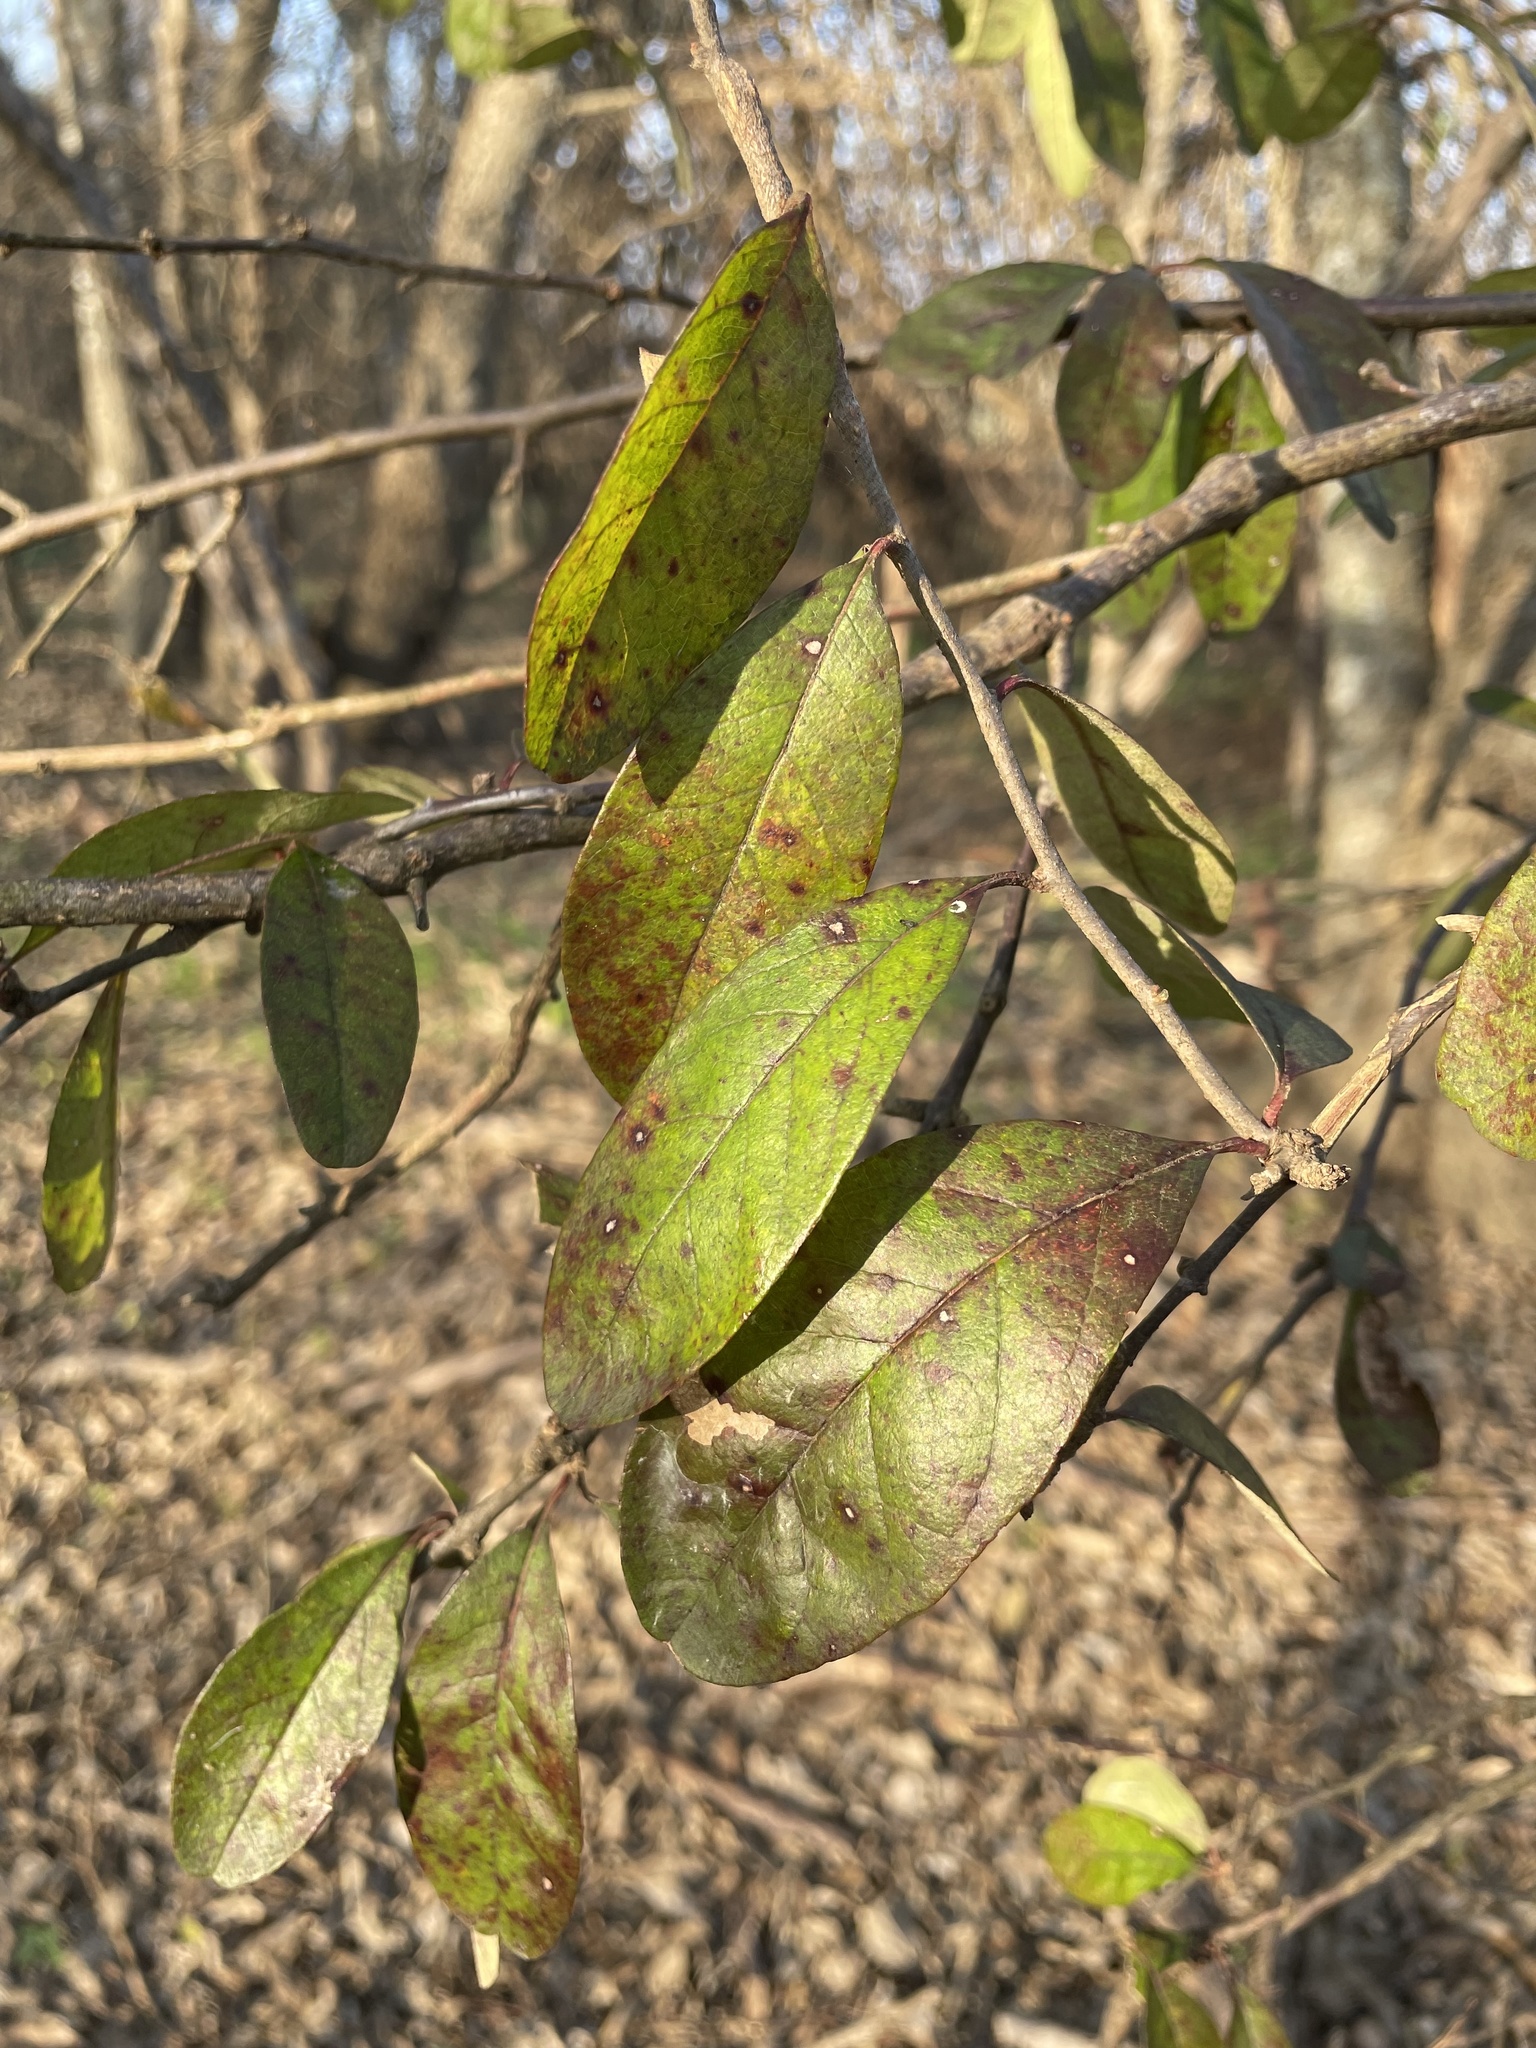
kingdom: Plantae
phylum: Tracheophyta
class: Magnoliopsida
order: Ericales
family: Sapotaceae
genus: Sideroxylon
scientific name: Sideroxylon lanuginosum
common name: Chittamwood
